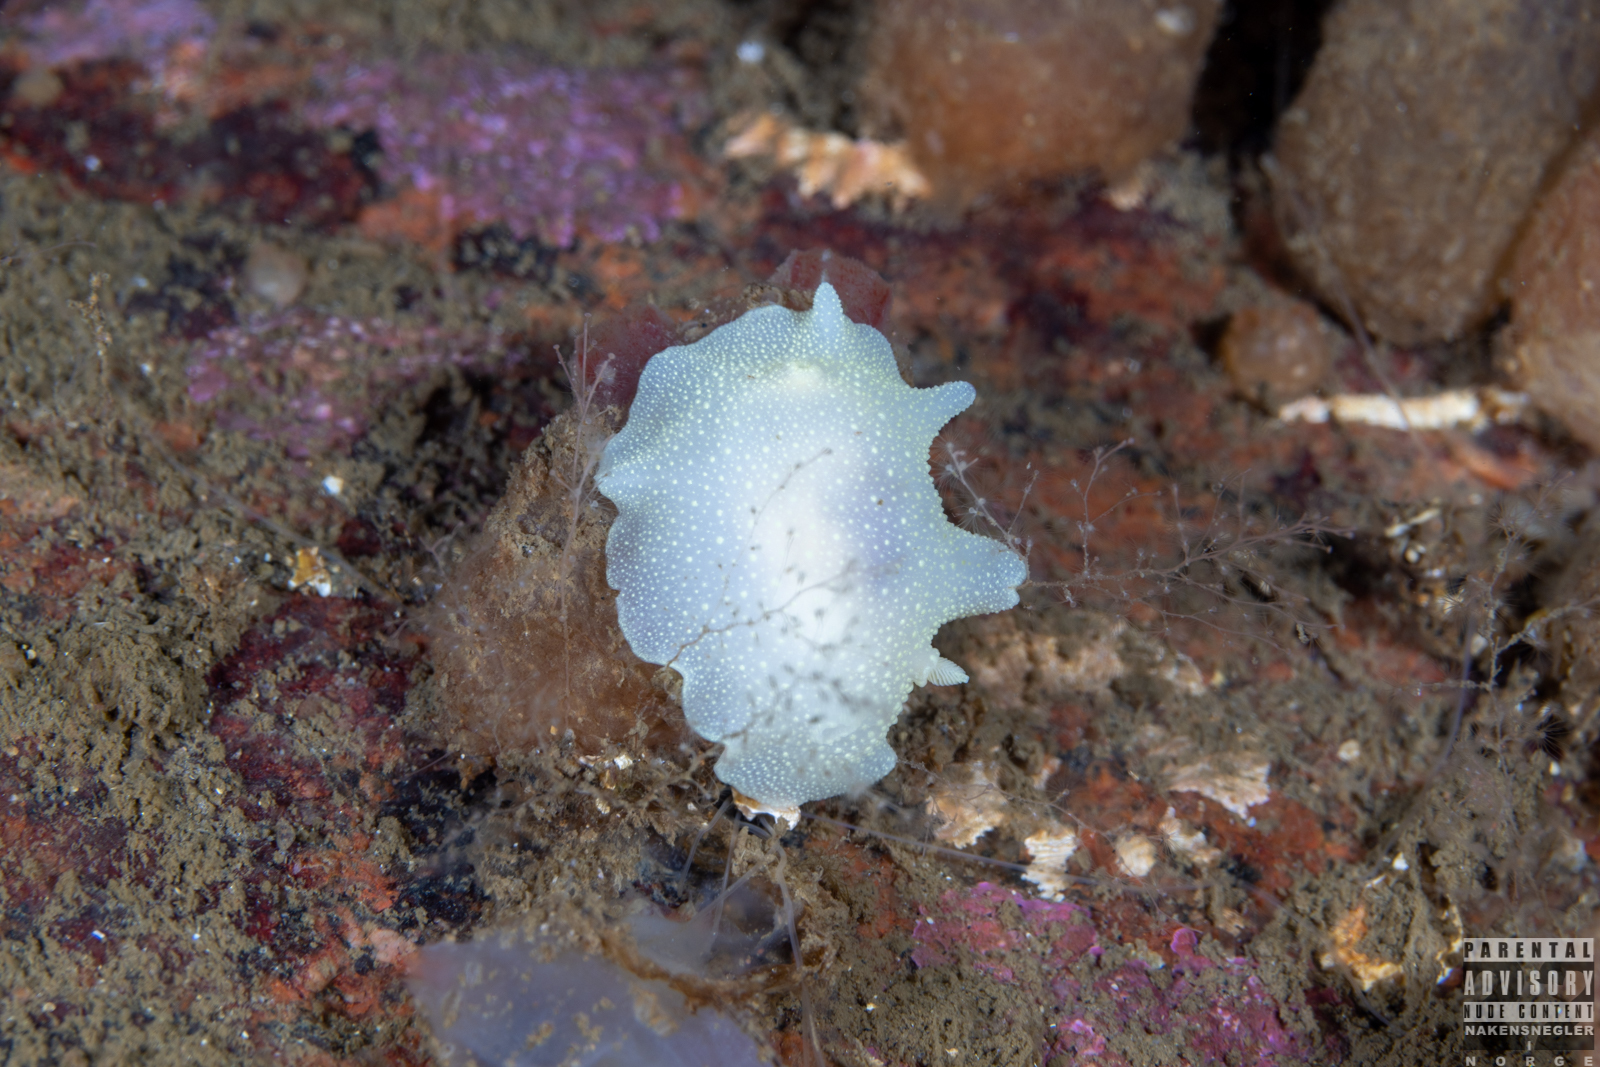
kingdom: Animalia
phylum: Mollusca
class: Gastropoda
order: Nudibranchia
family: Cadlinidae
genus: Cadlina
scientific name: Cadlina laevis
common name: White atlantic cadlina
